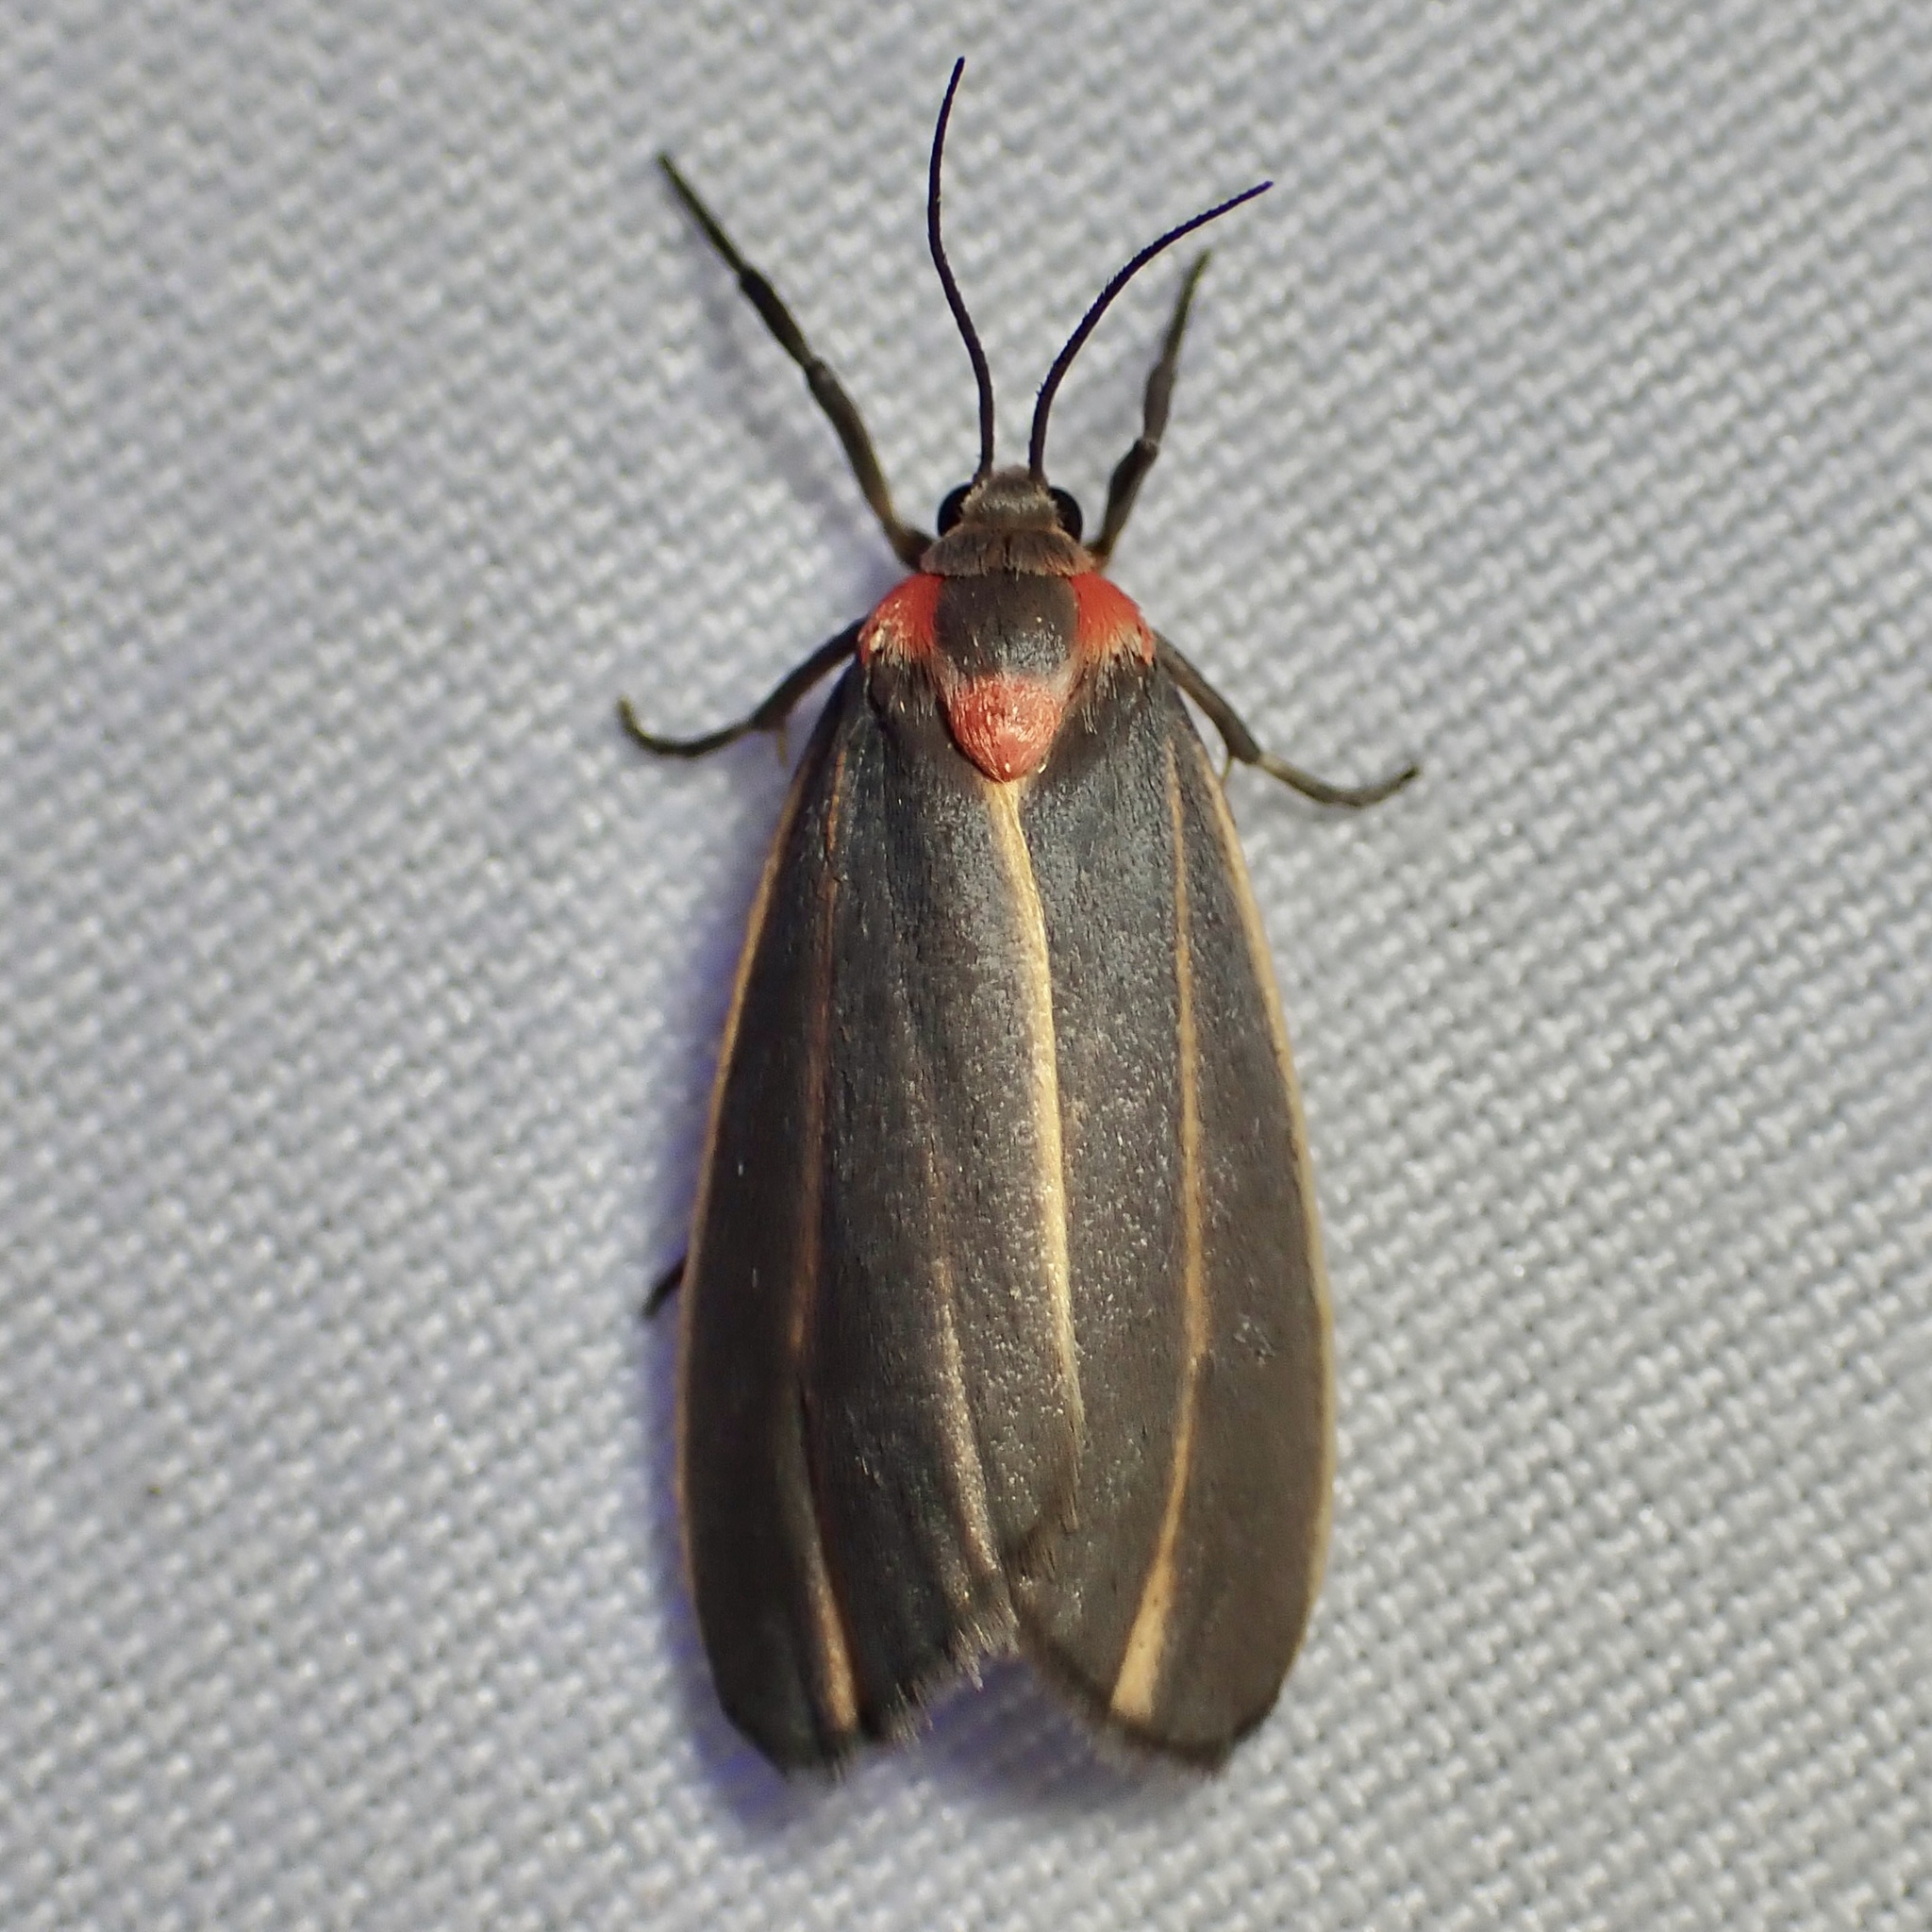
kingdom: Animalia
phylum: Arthropoda
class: Insecta
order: Lepidoptera
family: Erebidae
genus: Haematomis
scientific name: Haematomis uniformis
